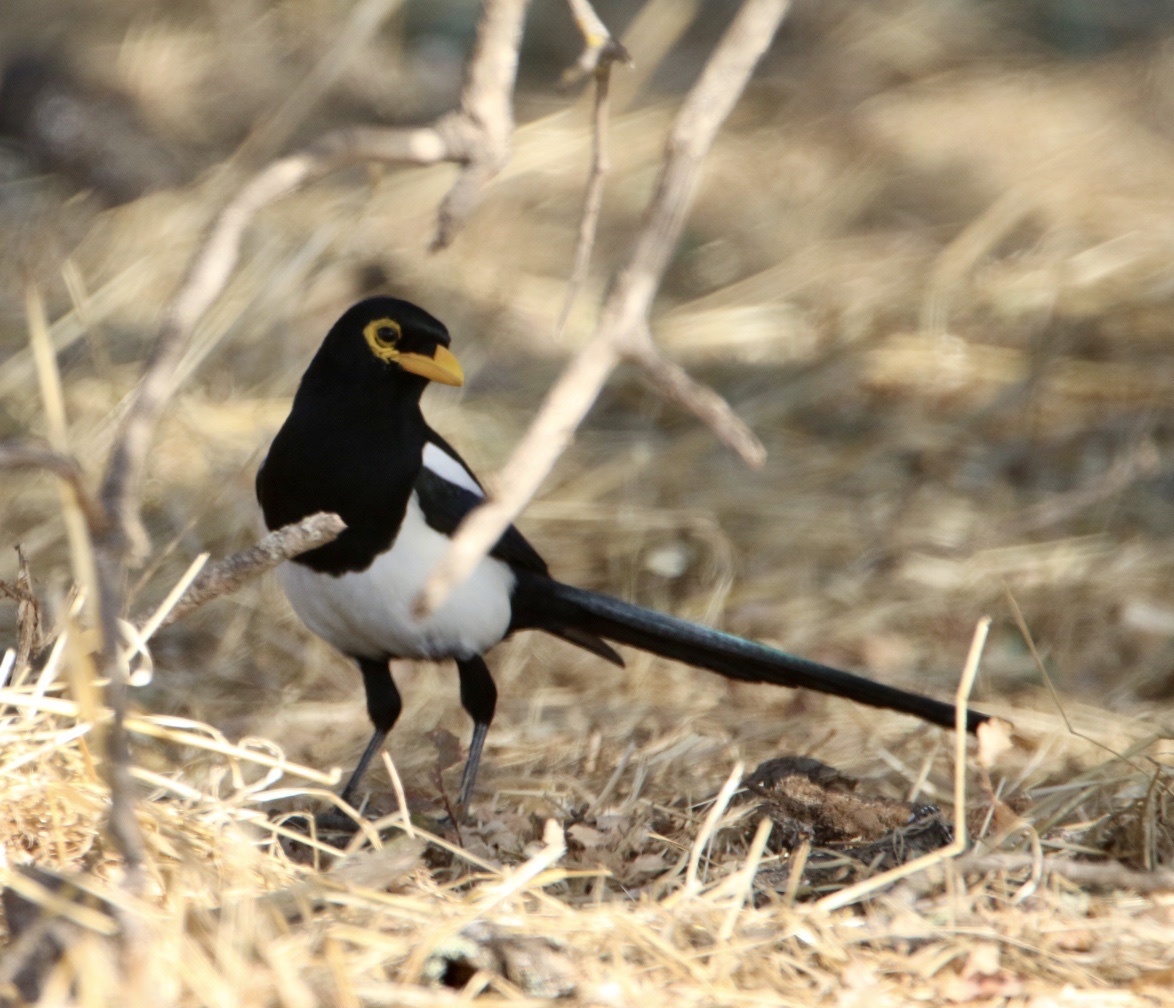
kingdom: Animalia
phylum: Chordata
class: Aves
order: Passeriformes
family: Corvidae
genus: Pica
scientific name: Pica nuttalli
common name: Yellow-billed magpie
